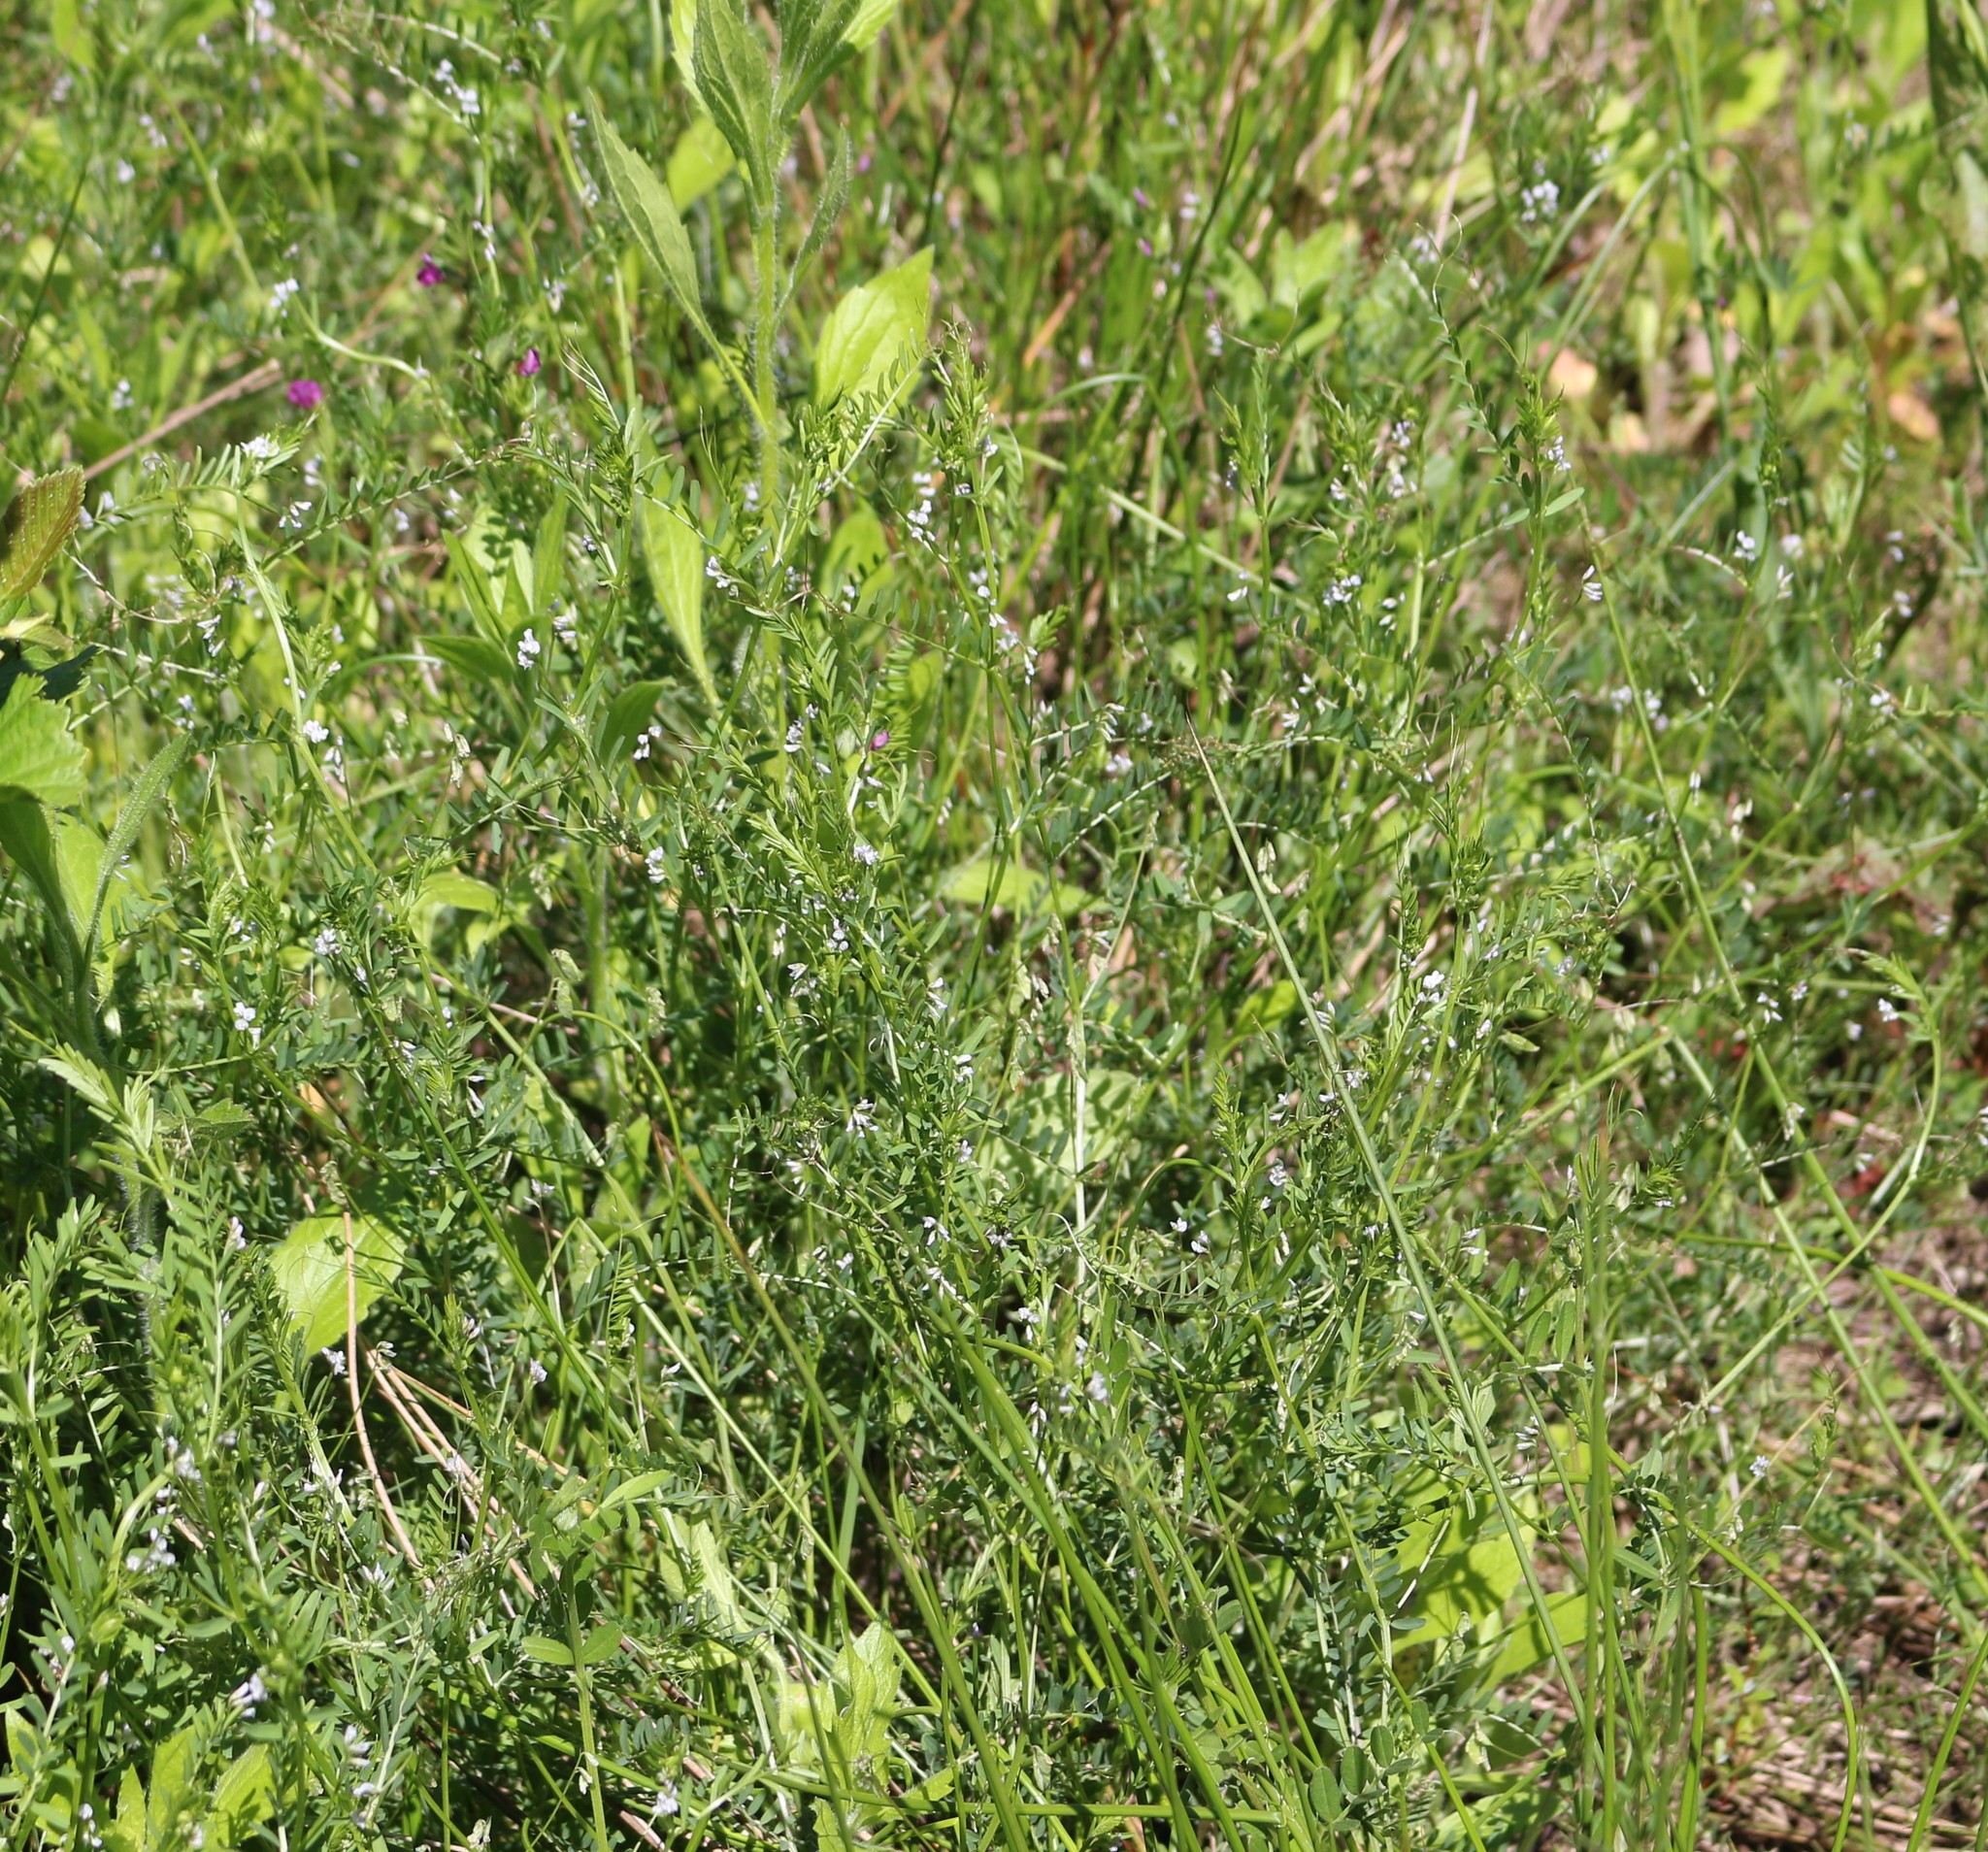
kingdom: Plantae
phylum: Tracheophyta
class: Magnoliopsida
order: Fabales
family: Fabaceae
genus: Vicia
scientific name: Vicia hirsuta
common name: Tiny vetch
